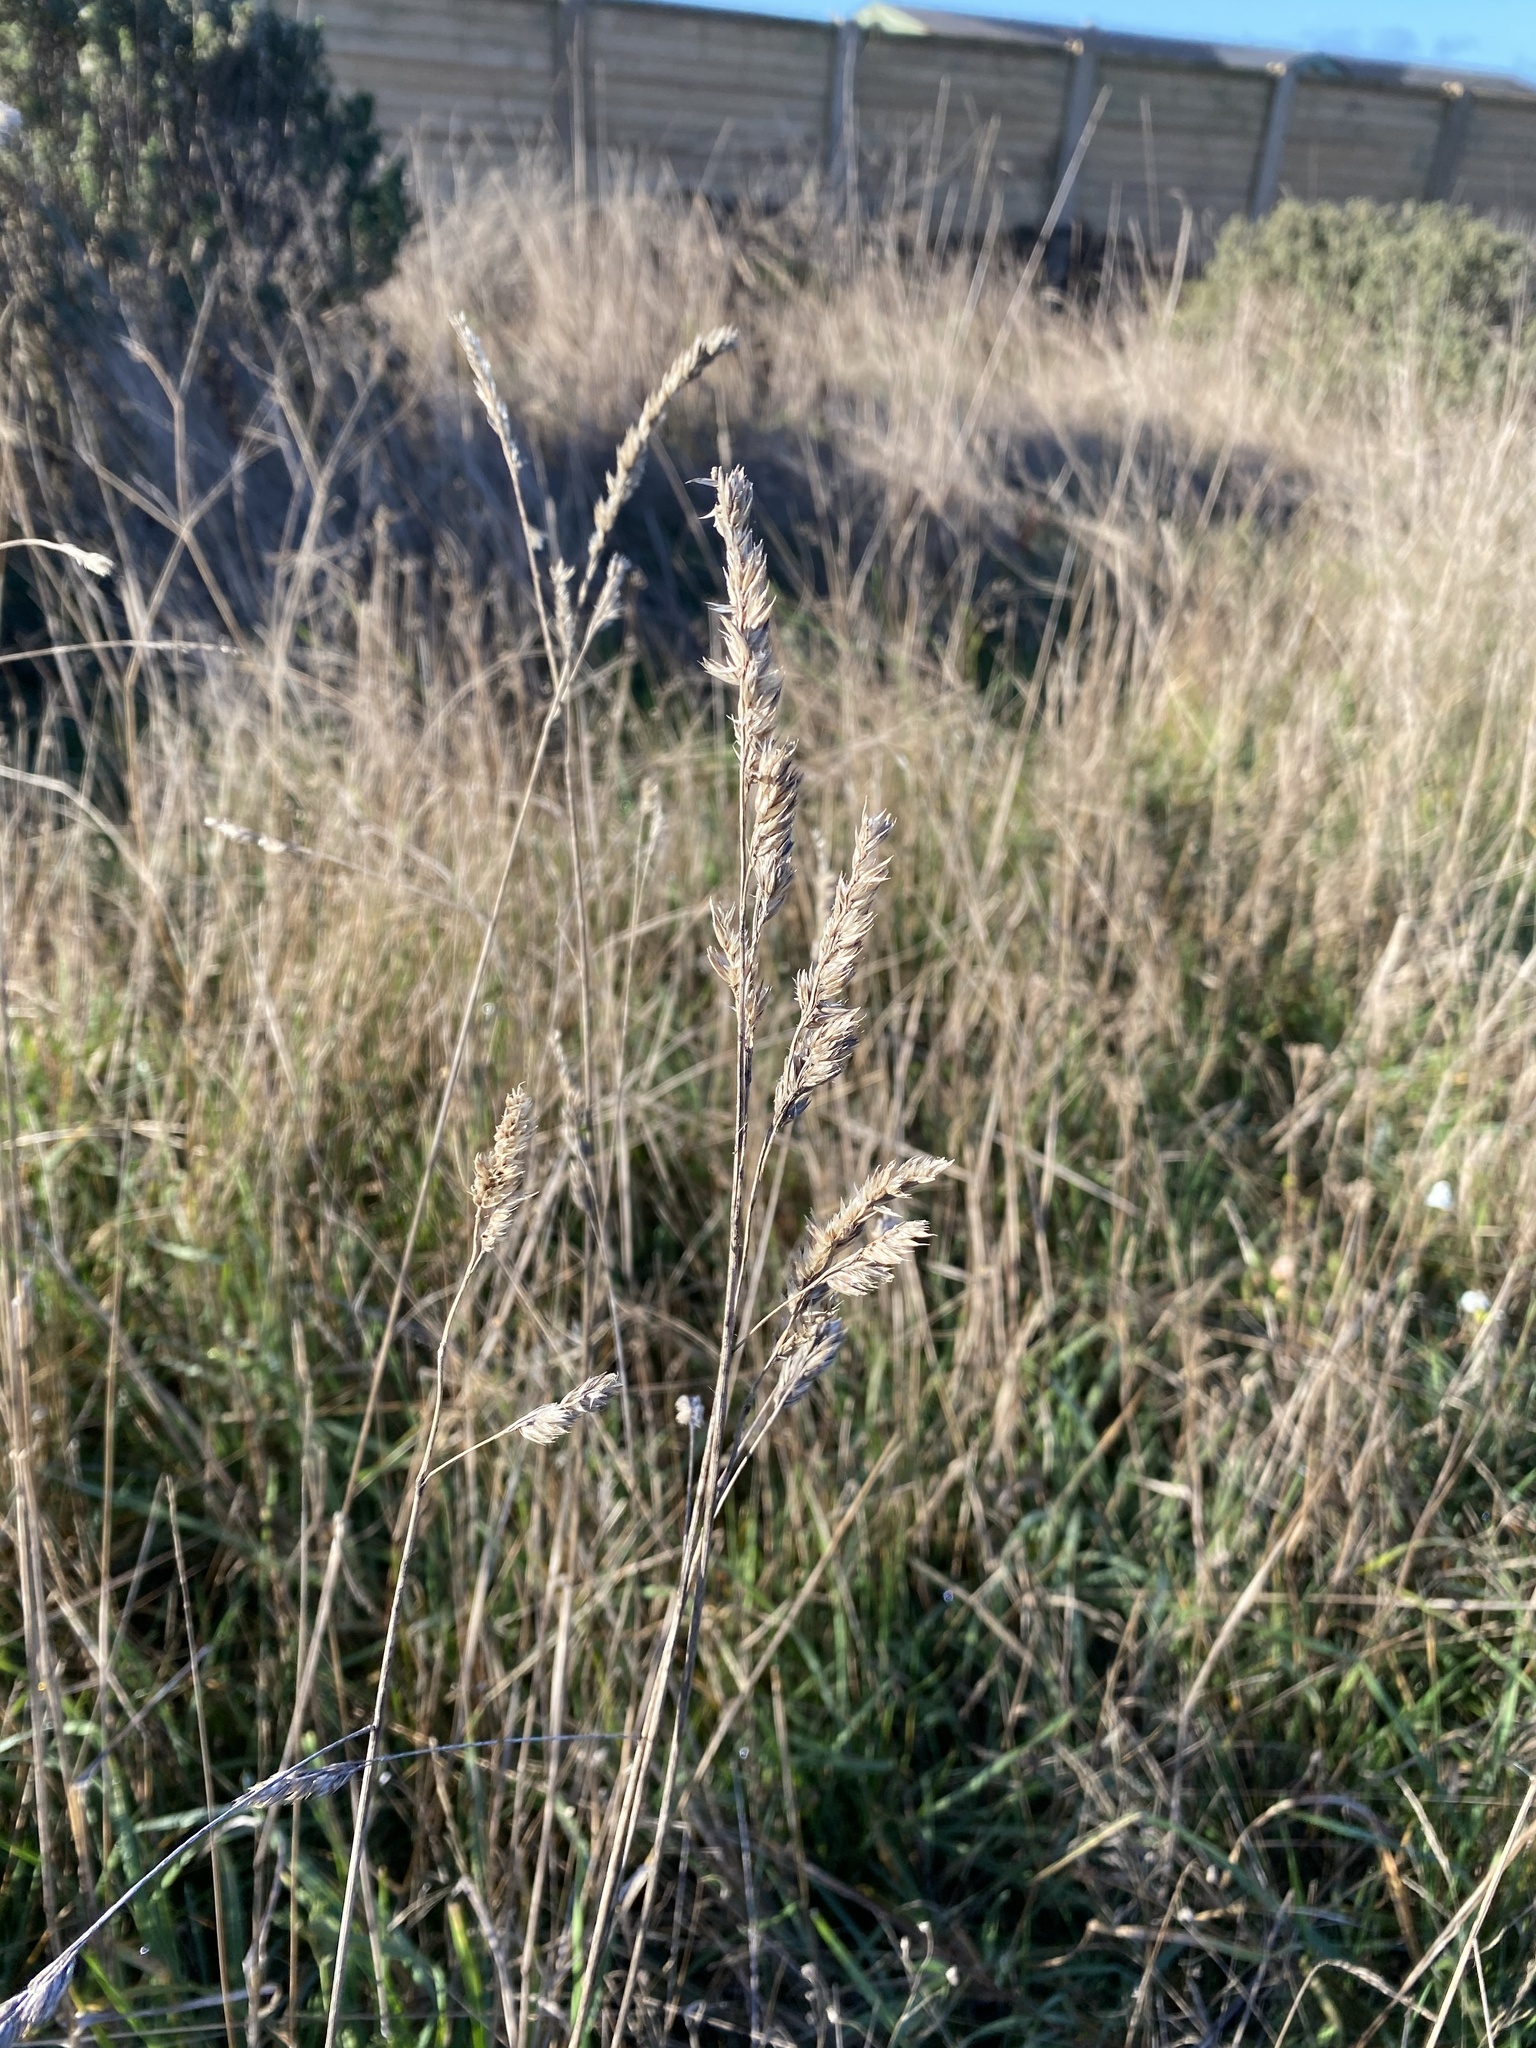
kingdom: Plantae
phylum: Tracheophyta
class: Liliopsida
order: Poales
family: Poaceae
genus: Dactylis
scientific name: Dactylis glomerata
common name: Orchardgrass
